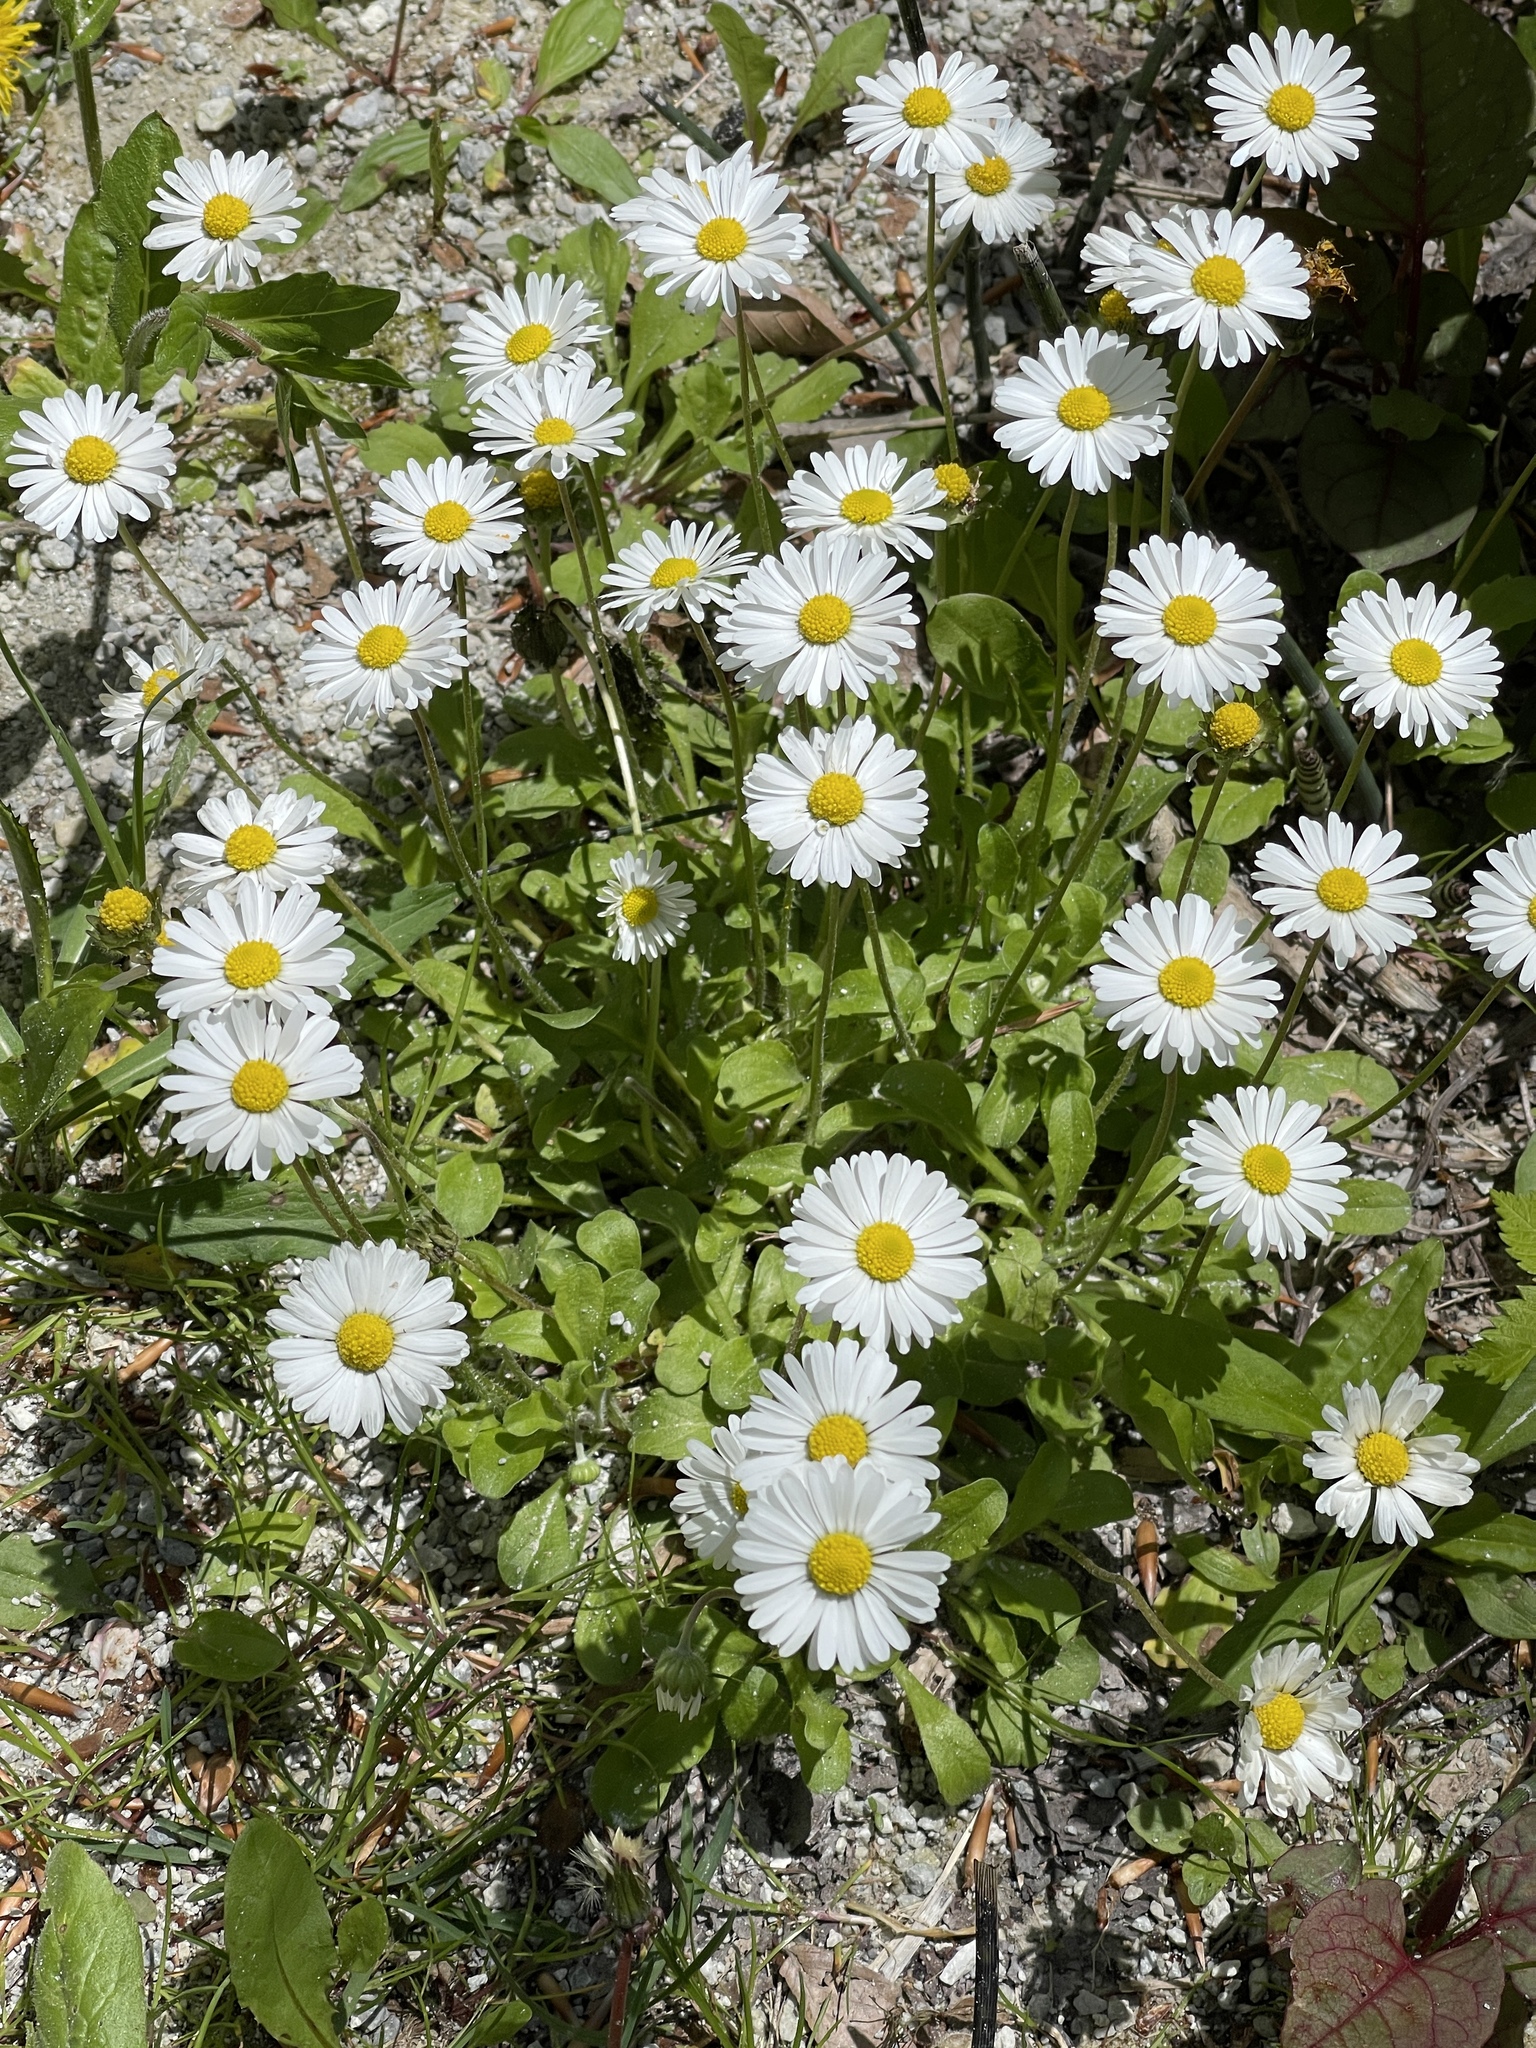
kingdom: Plantae
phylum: Tracheophyta
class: Magnoliopsida
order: Asterales
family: Asteraceae
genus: Bellis
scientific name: Bellis perennis
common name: Lawndaisy
